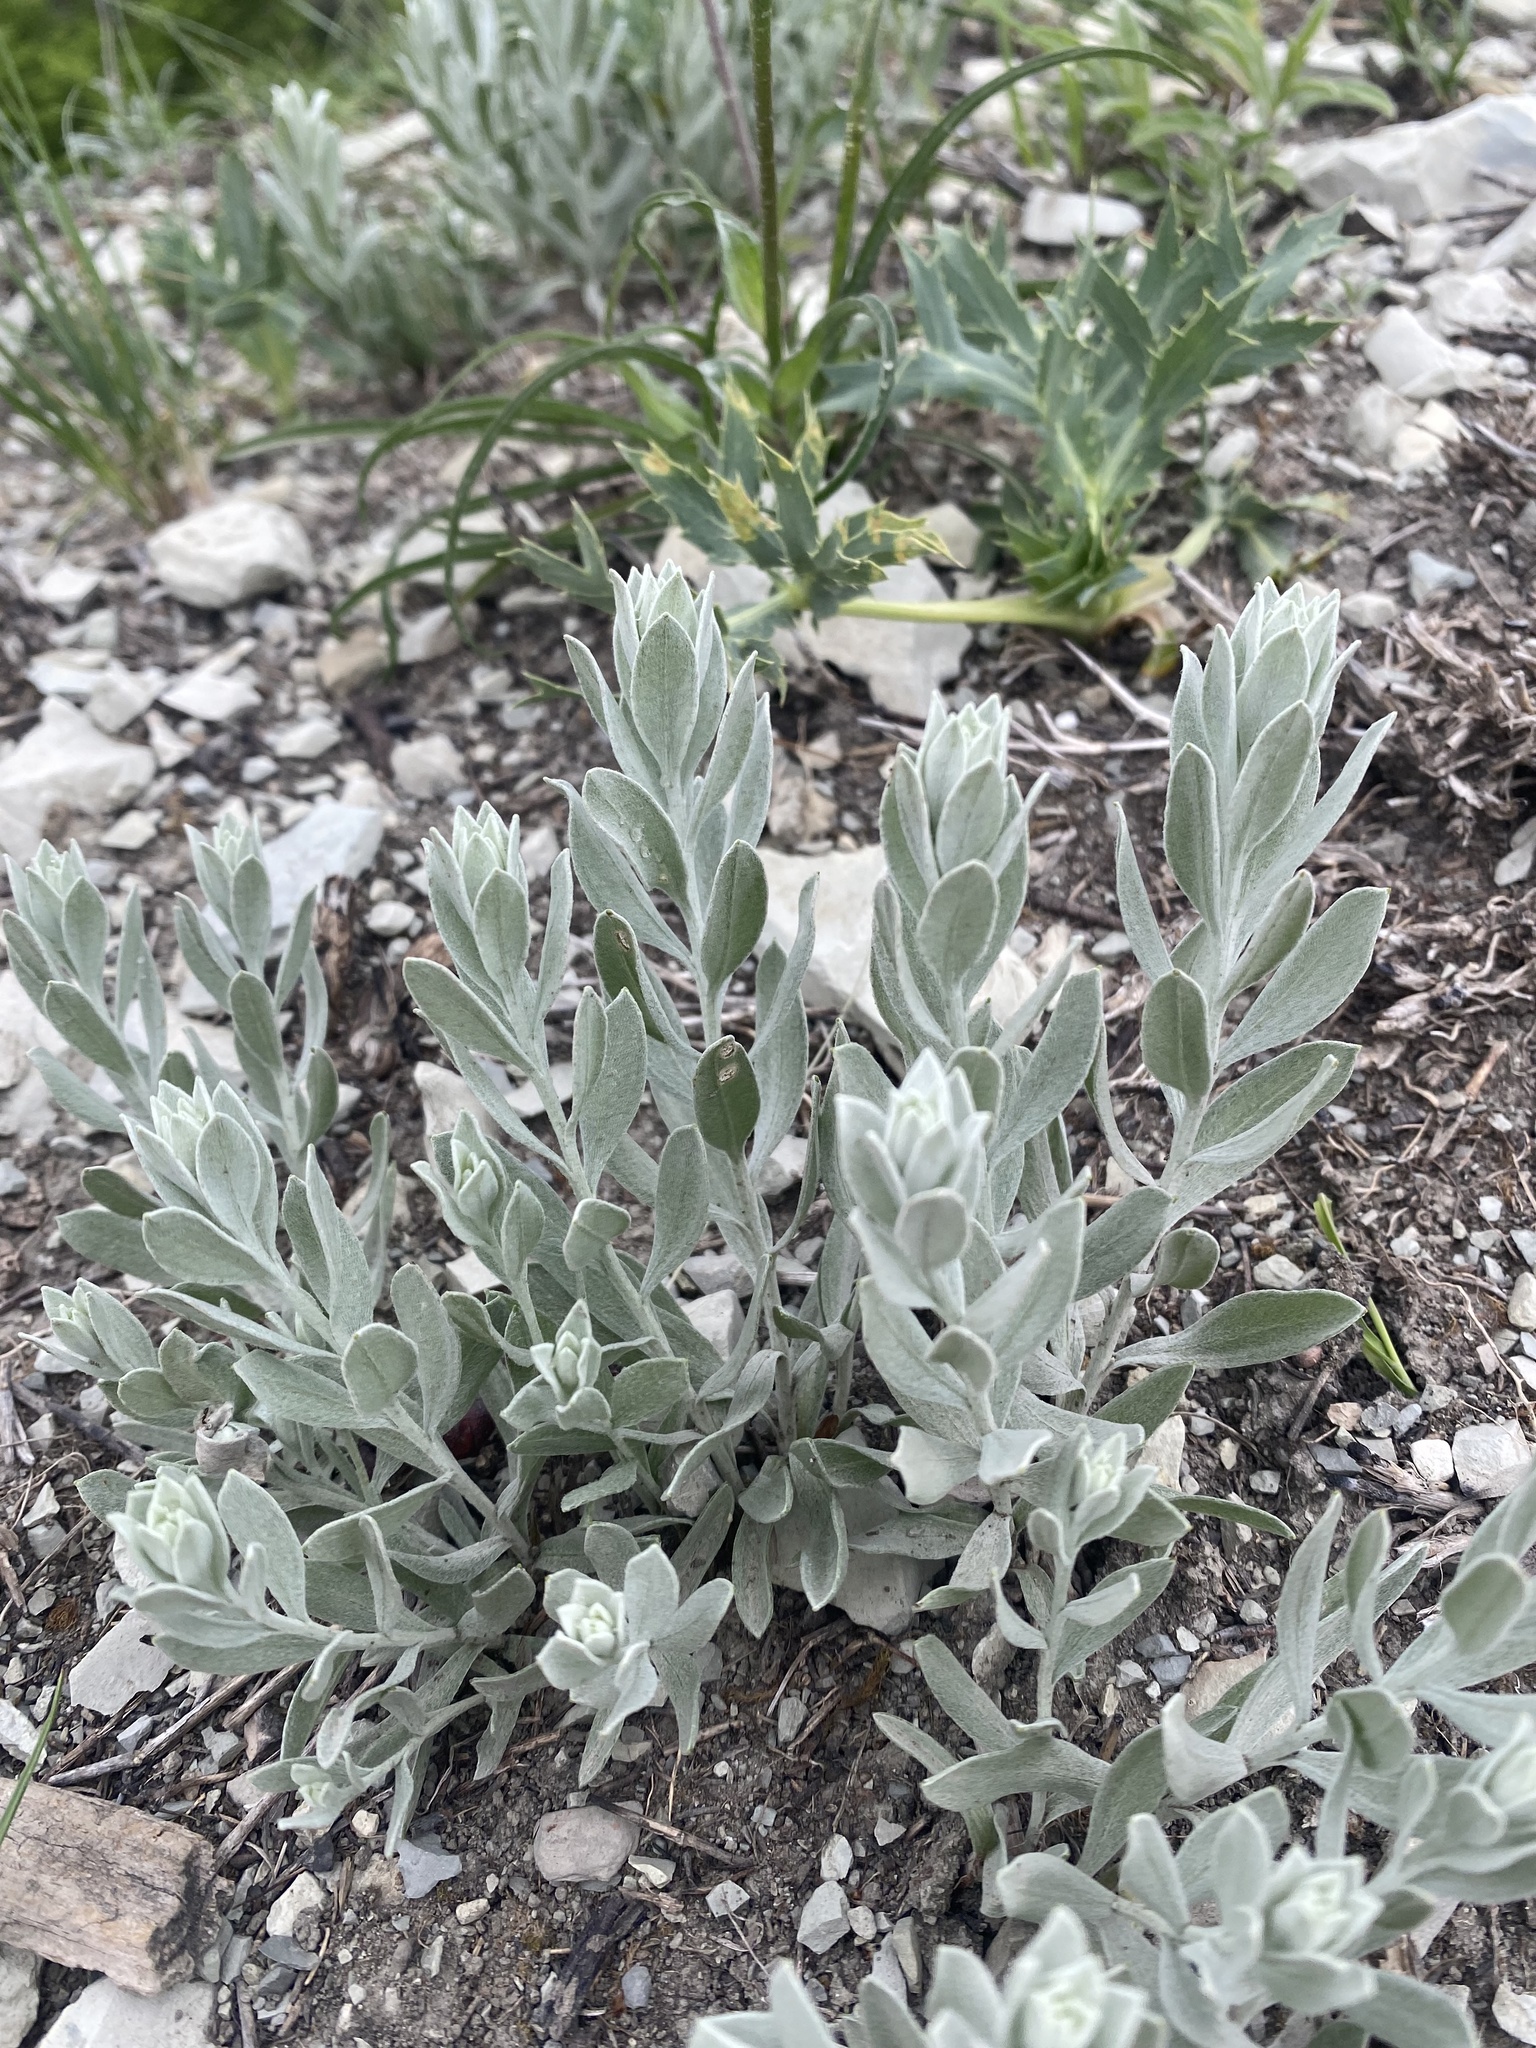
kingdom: Plantae
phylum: Tracheophyta
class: Magnoliopsida
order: Asterales
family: Asteraceae
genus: Galatella
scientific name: Galatella villosa
